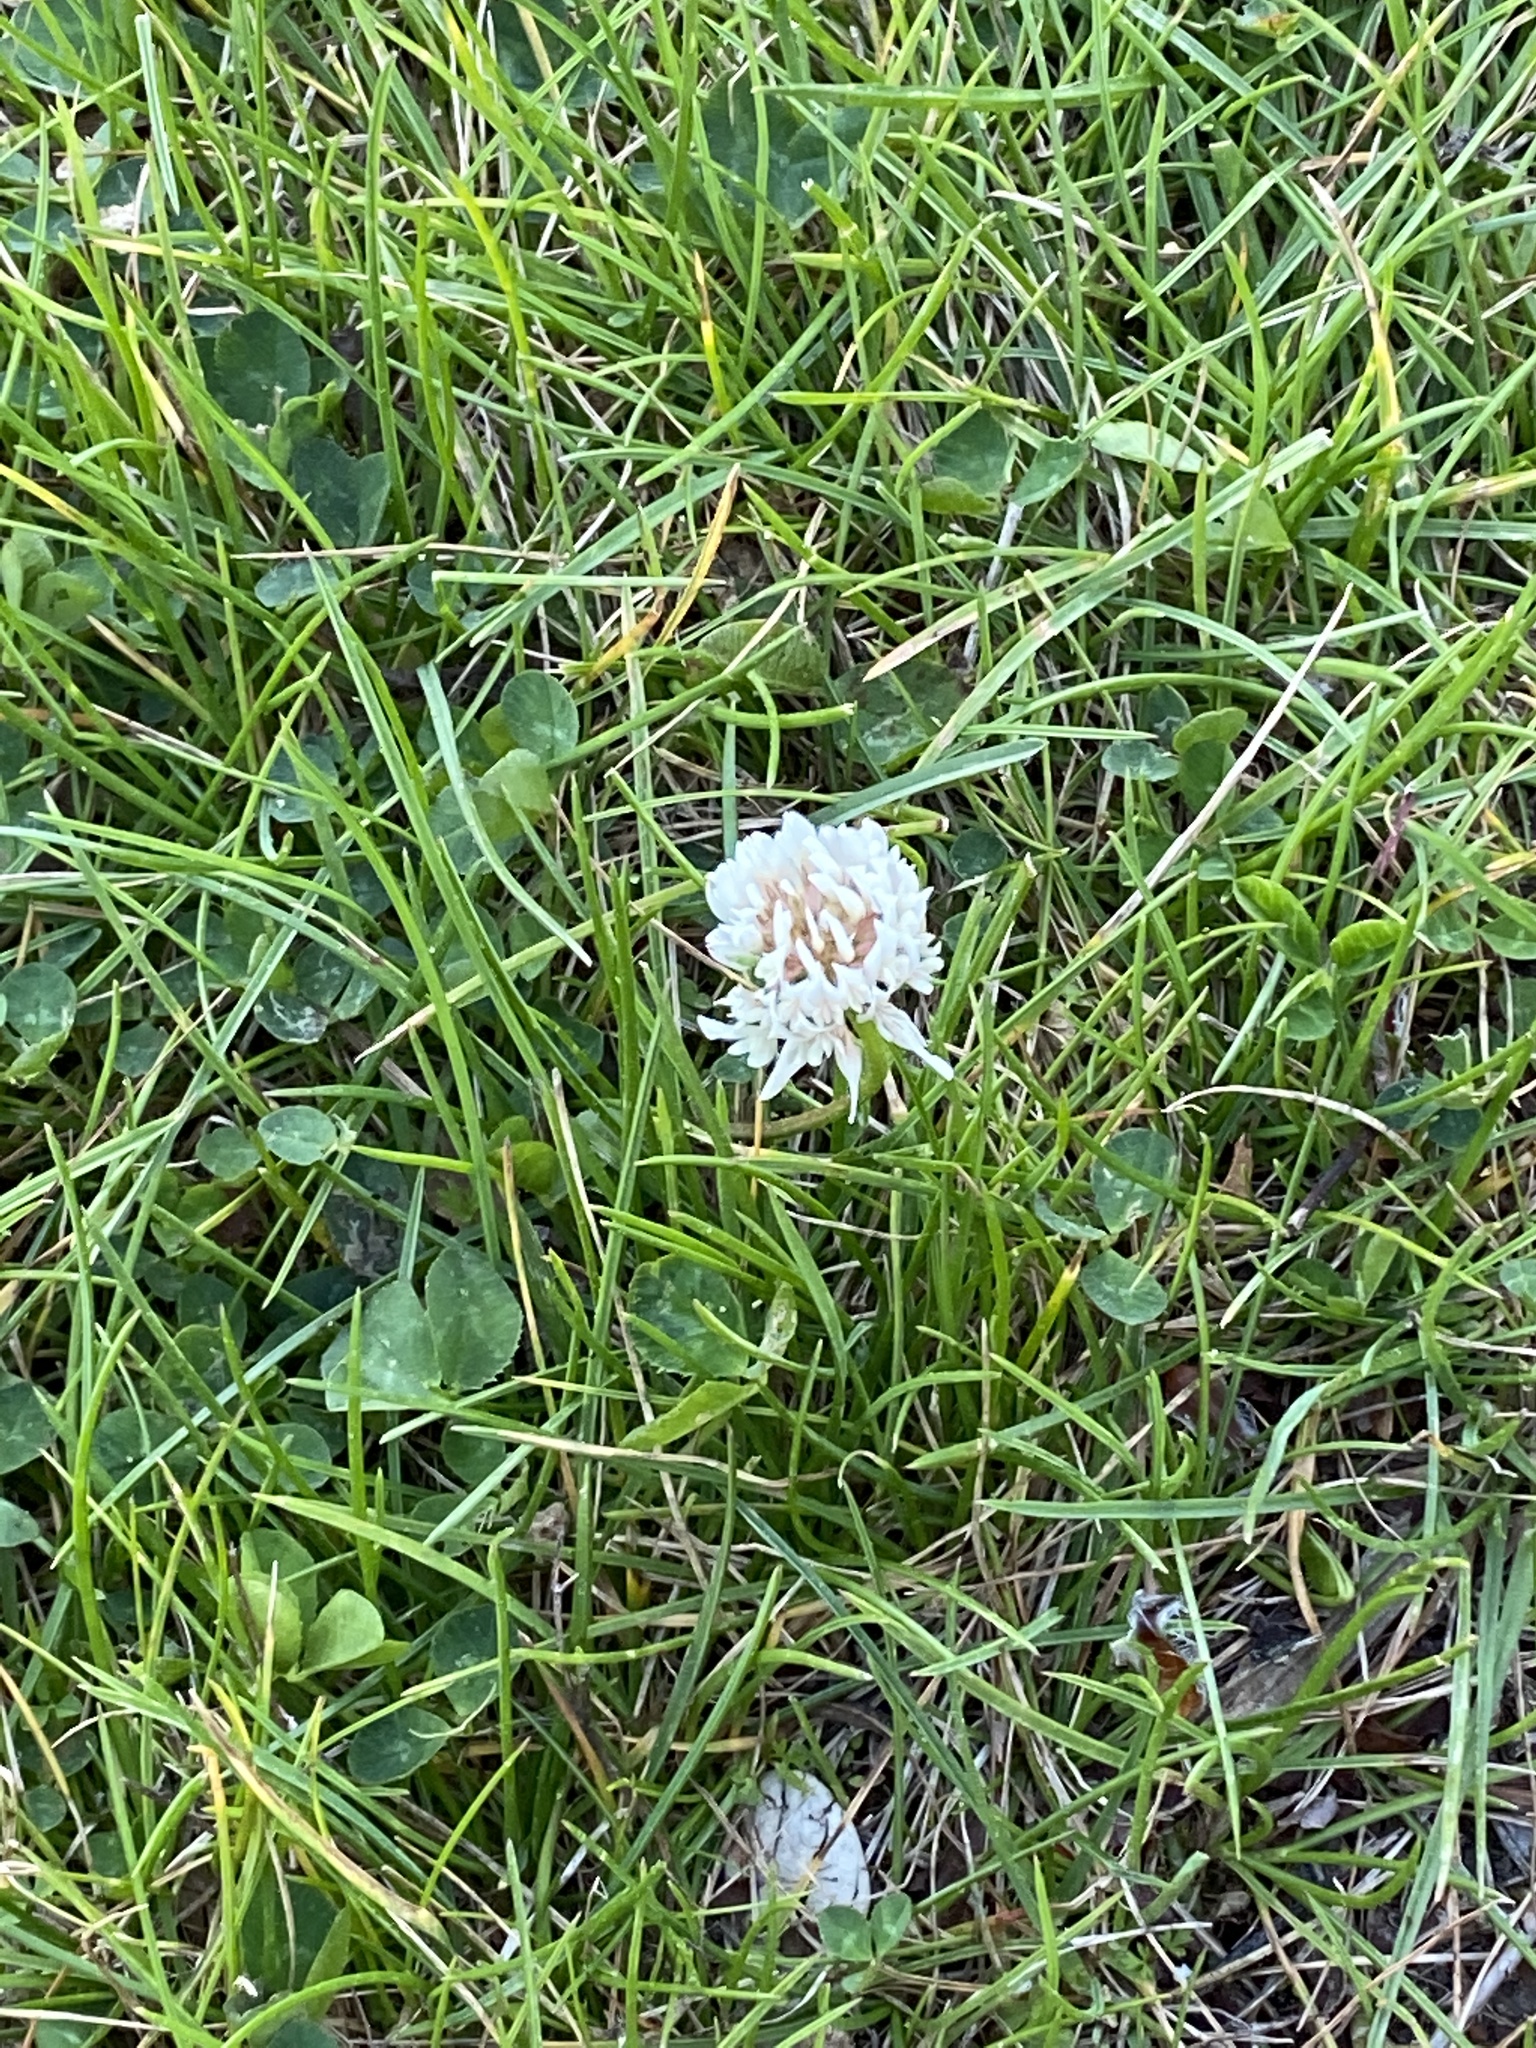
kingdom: Plantae
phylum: Tracheophyta
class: Magnoliopsida
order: Fabales
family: Fabaceae
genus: Trifolium
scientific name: Trifolium repens
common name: White clover
